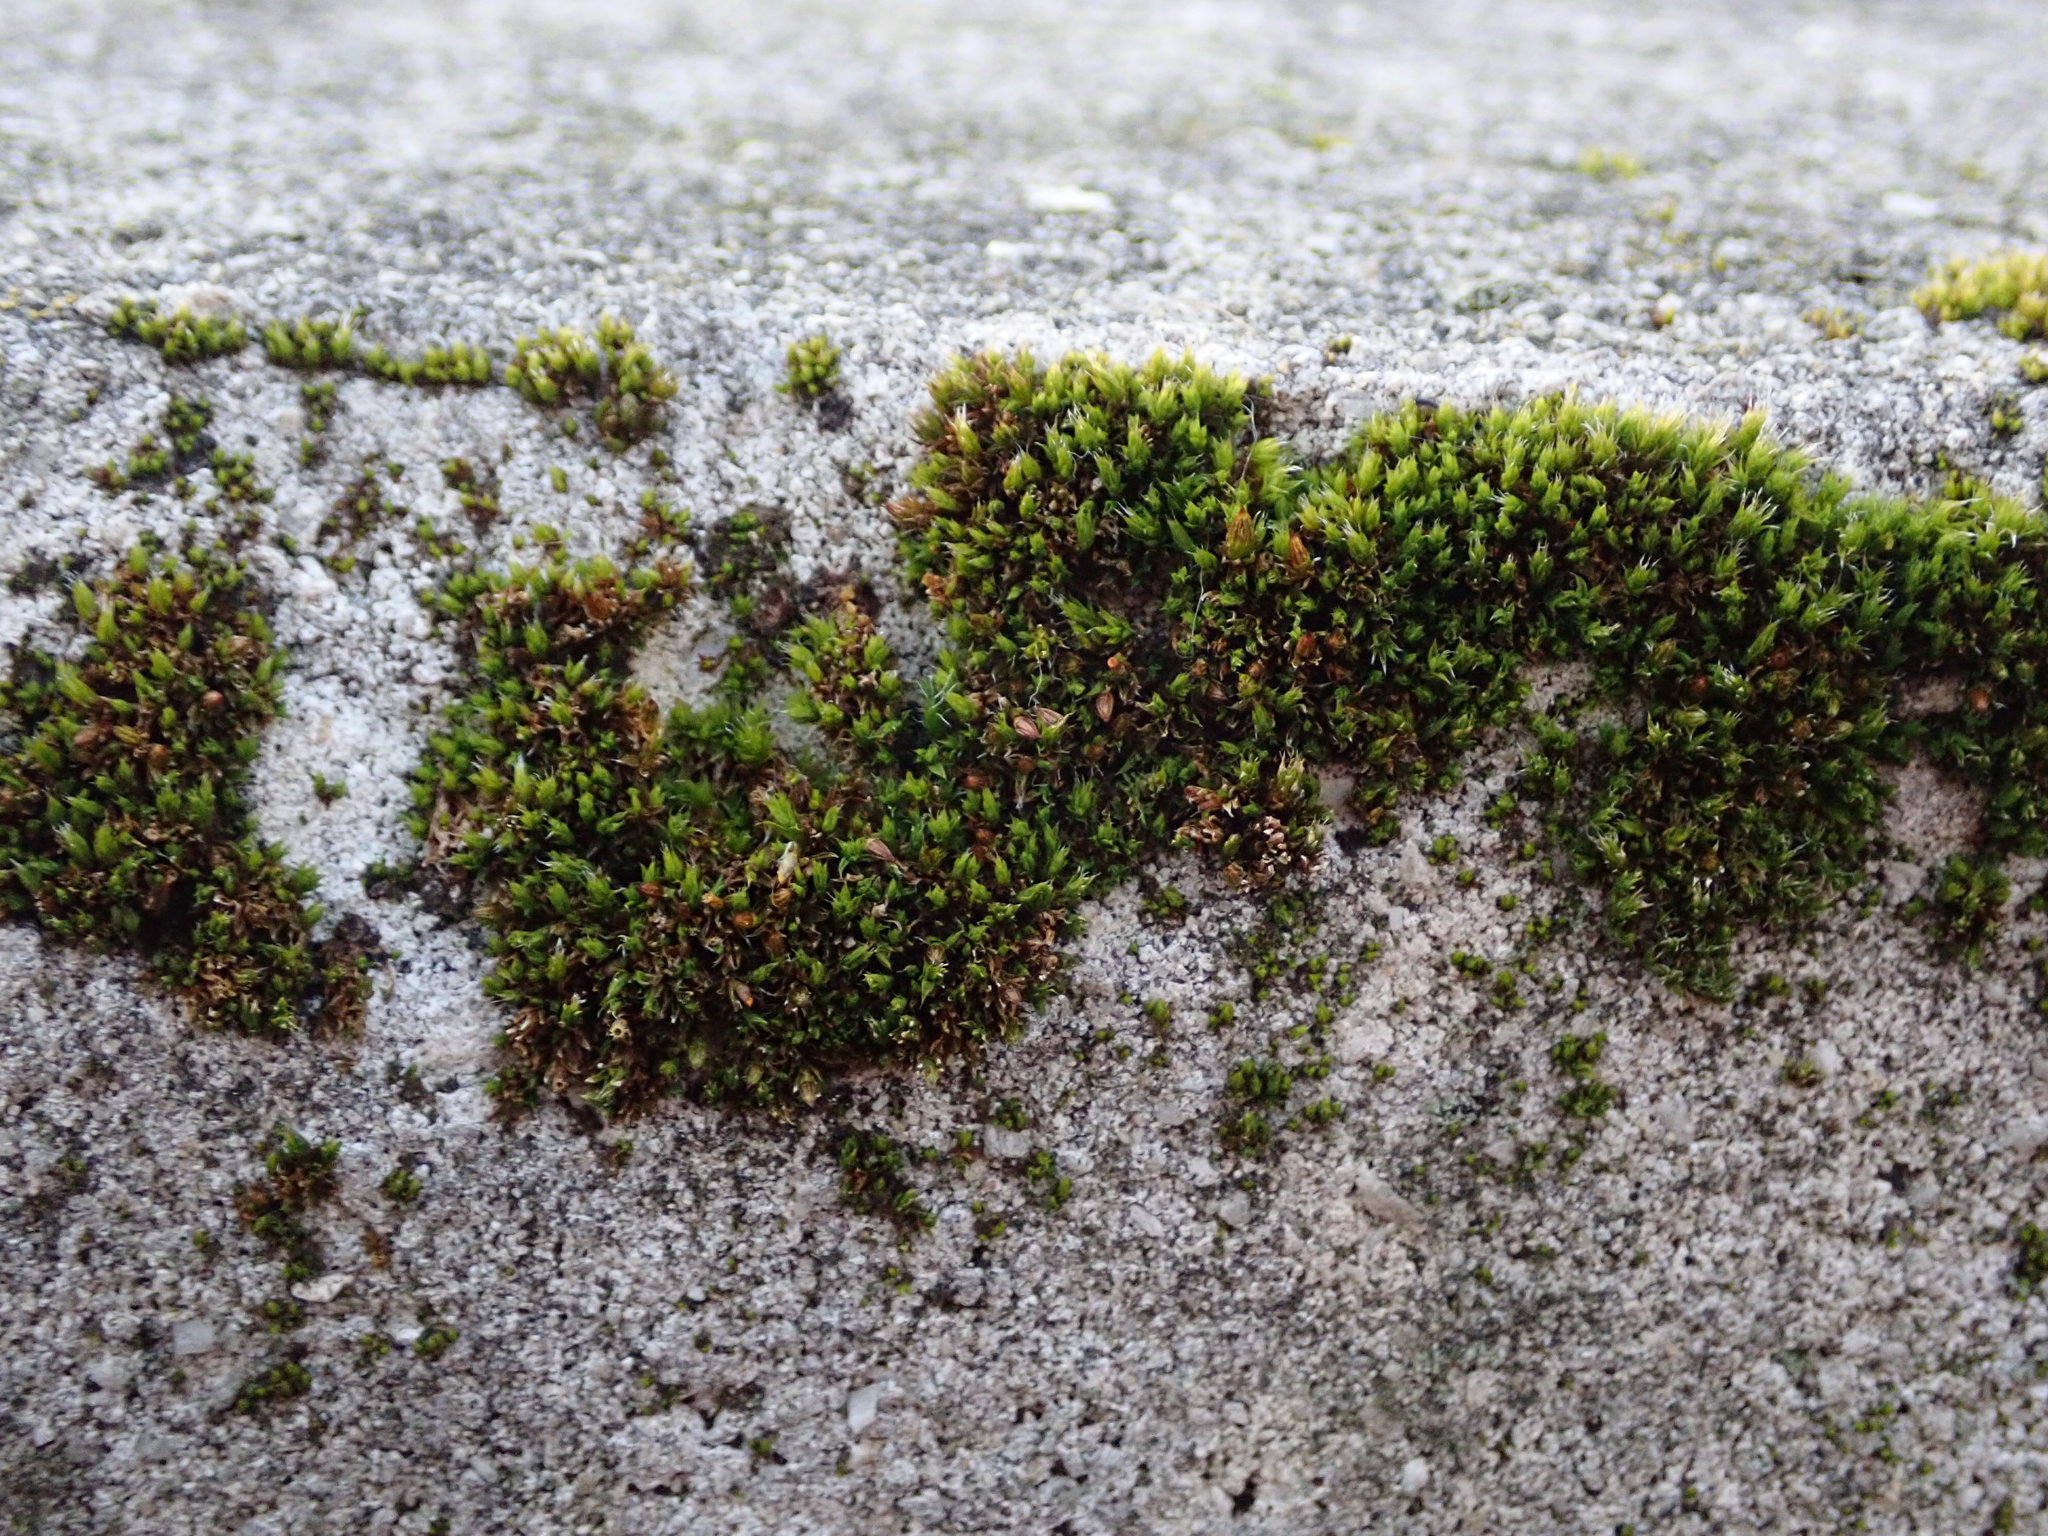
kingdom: Plantae
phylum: Bryophyta
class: Bryopsida
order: Orthotrichales
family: Orthotrichaceae
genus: Orthotrichum
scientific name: Orthotrichum diaphanum
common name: White-tipped bristle-moss
